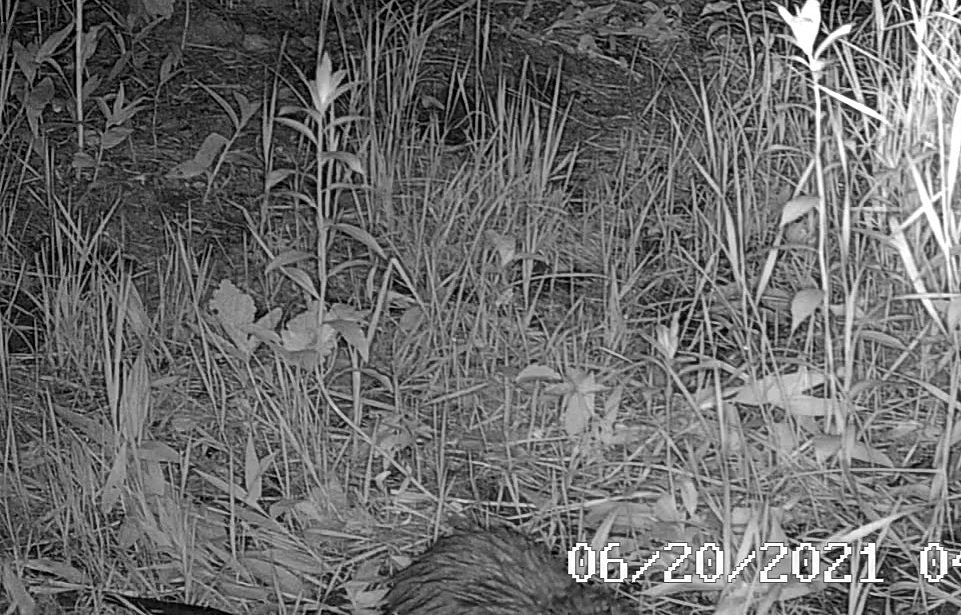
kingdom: Animalia
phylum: Chordata
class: Mammalia
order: Rodentia
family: Cricetidae
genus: Ondatra
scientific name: Ondatra zibethicus
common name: Muskrat
